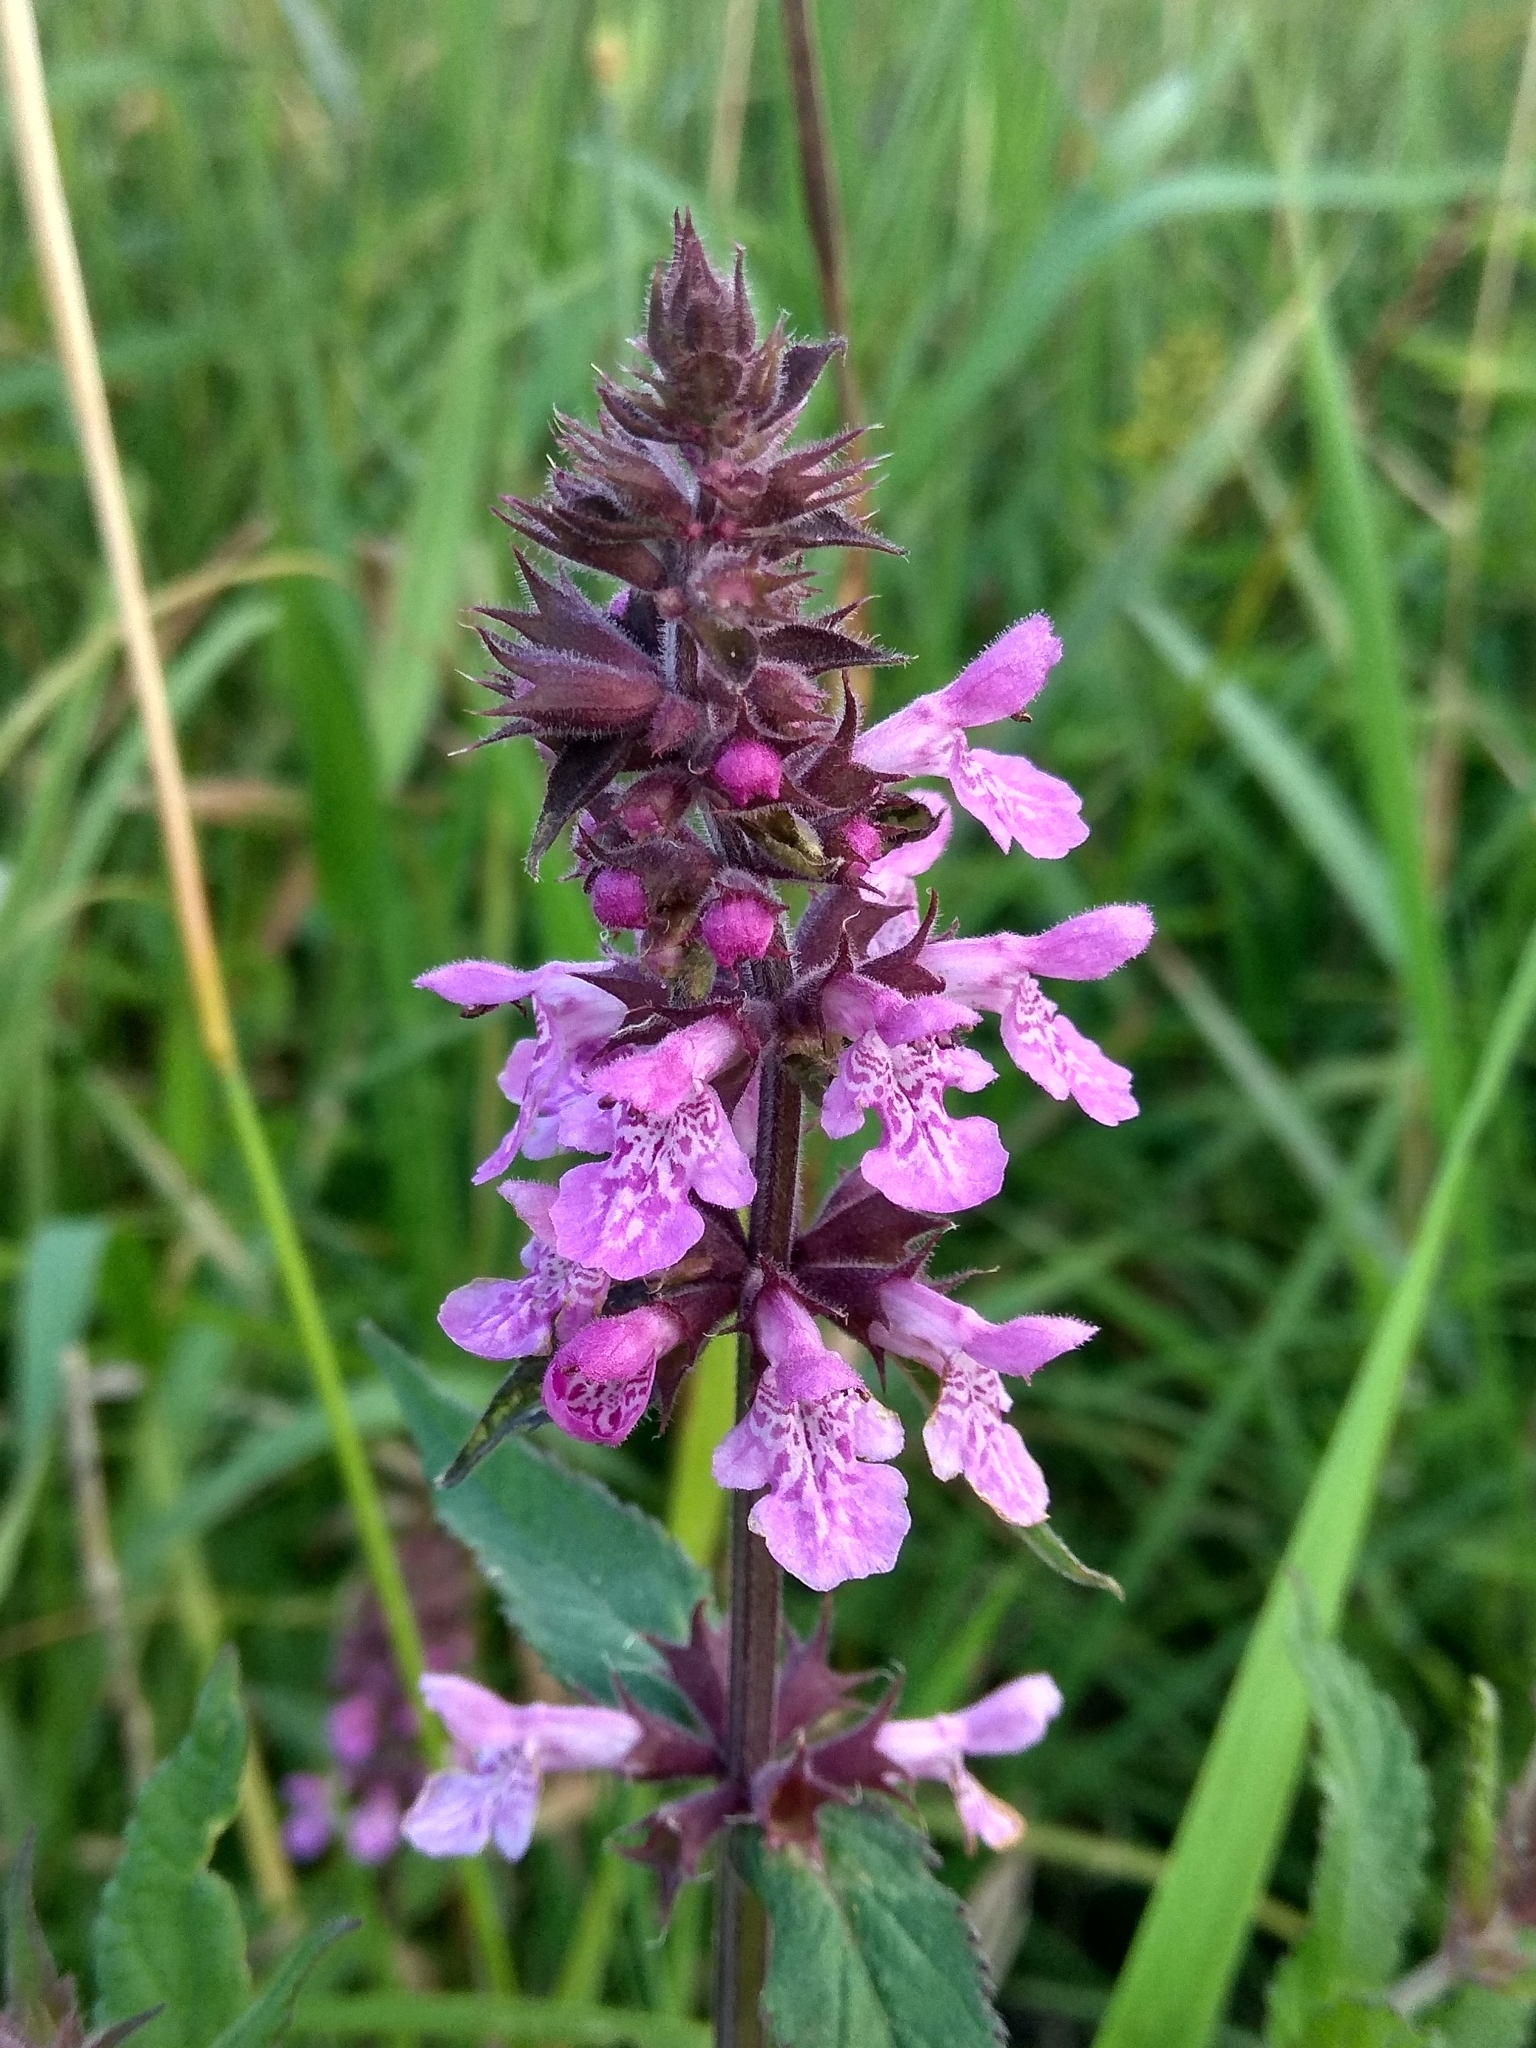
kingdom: Plantae
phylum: Tracheophyta
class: Magnoliopsida
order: Lamiales
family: Lamiaceae
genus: Stachys
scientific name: Stachys palustris
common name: Marsh woundwort
